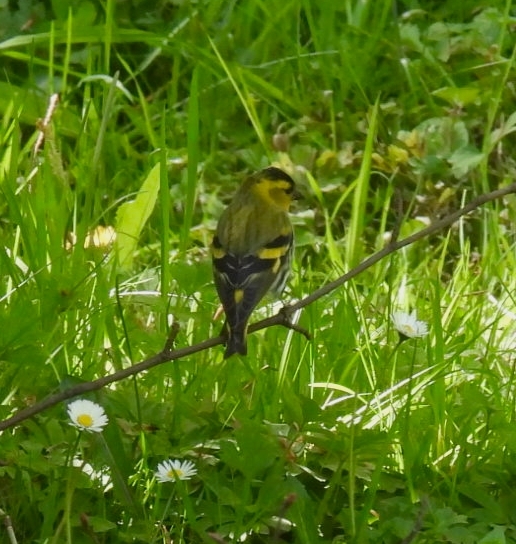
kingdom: Animalia
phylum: Chordata
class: Aves
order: Passeriformes
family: Fringillidae
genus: Spinus
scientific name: Spinus spinus
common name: Eurasian siskin
